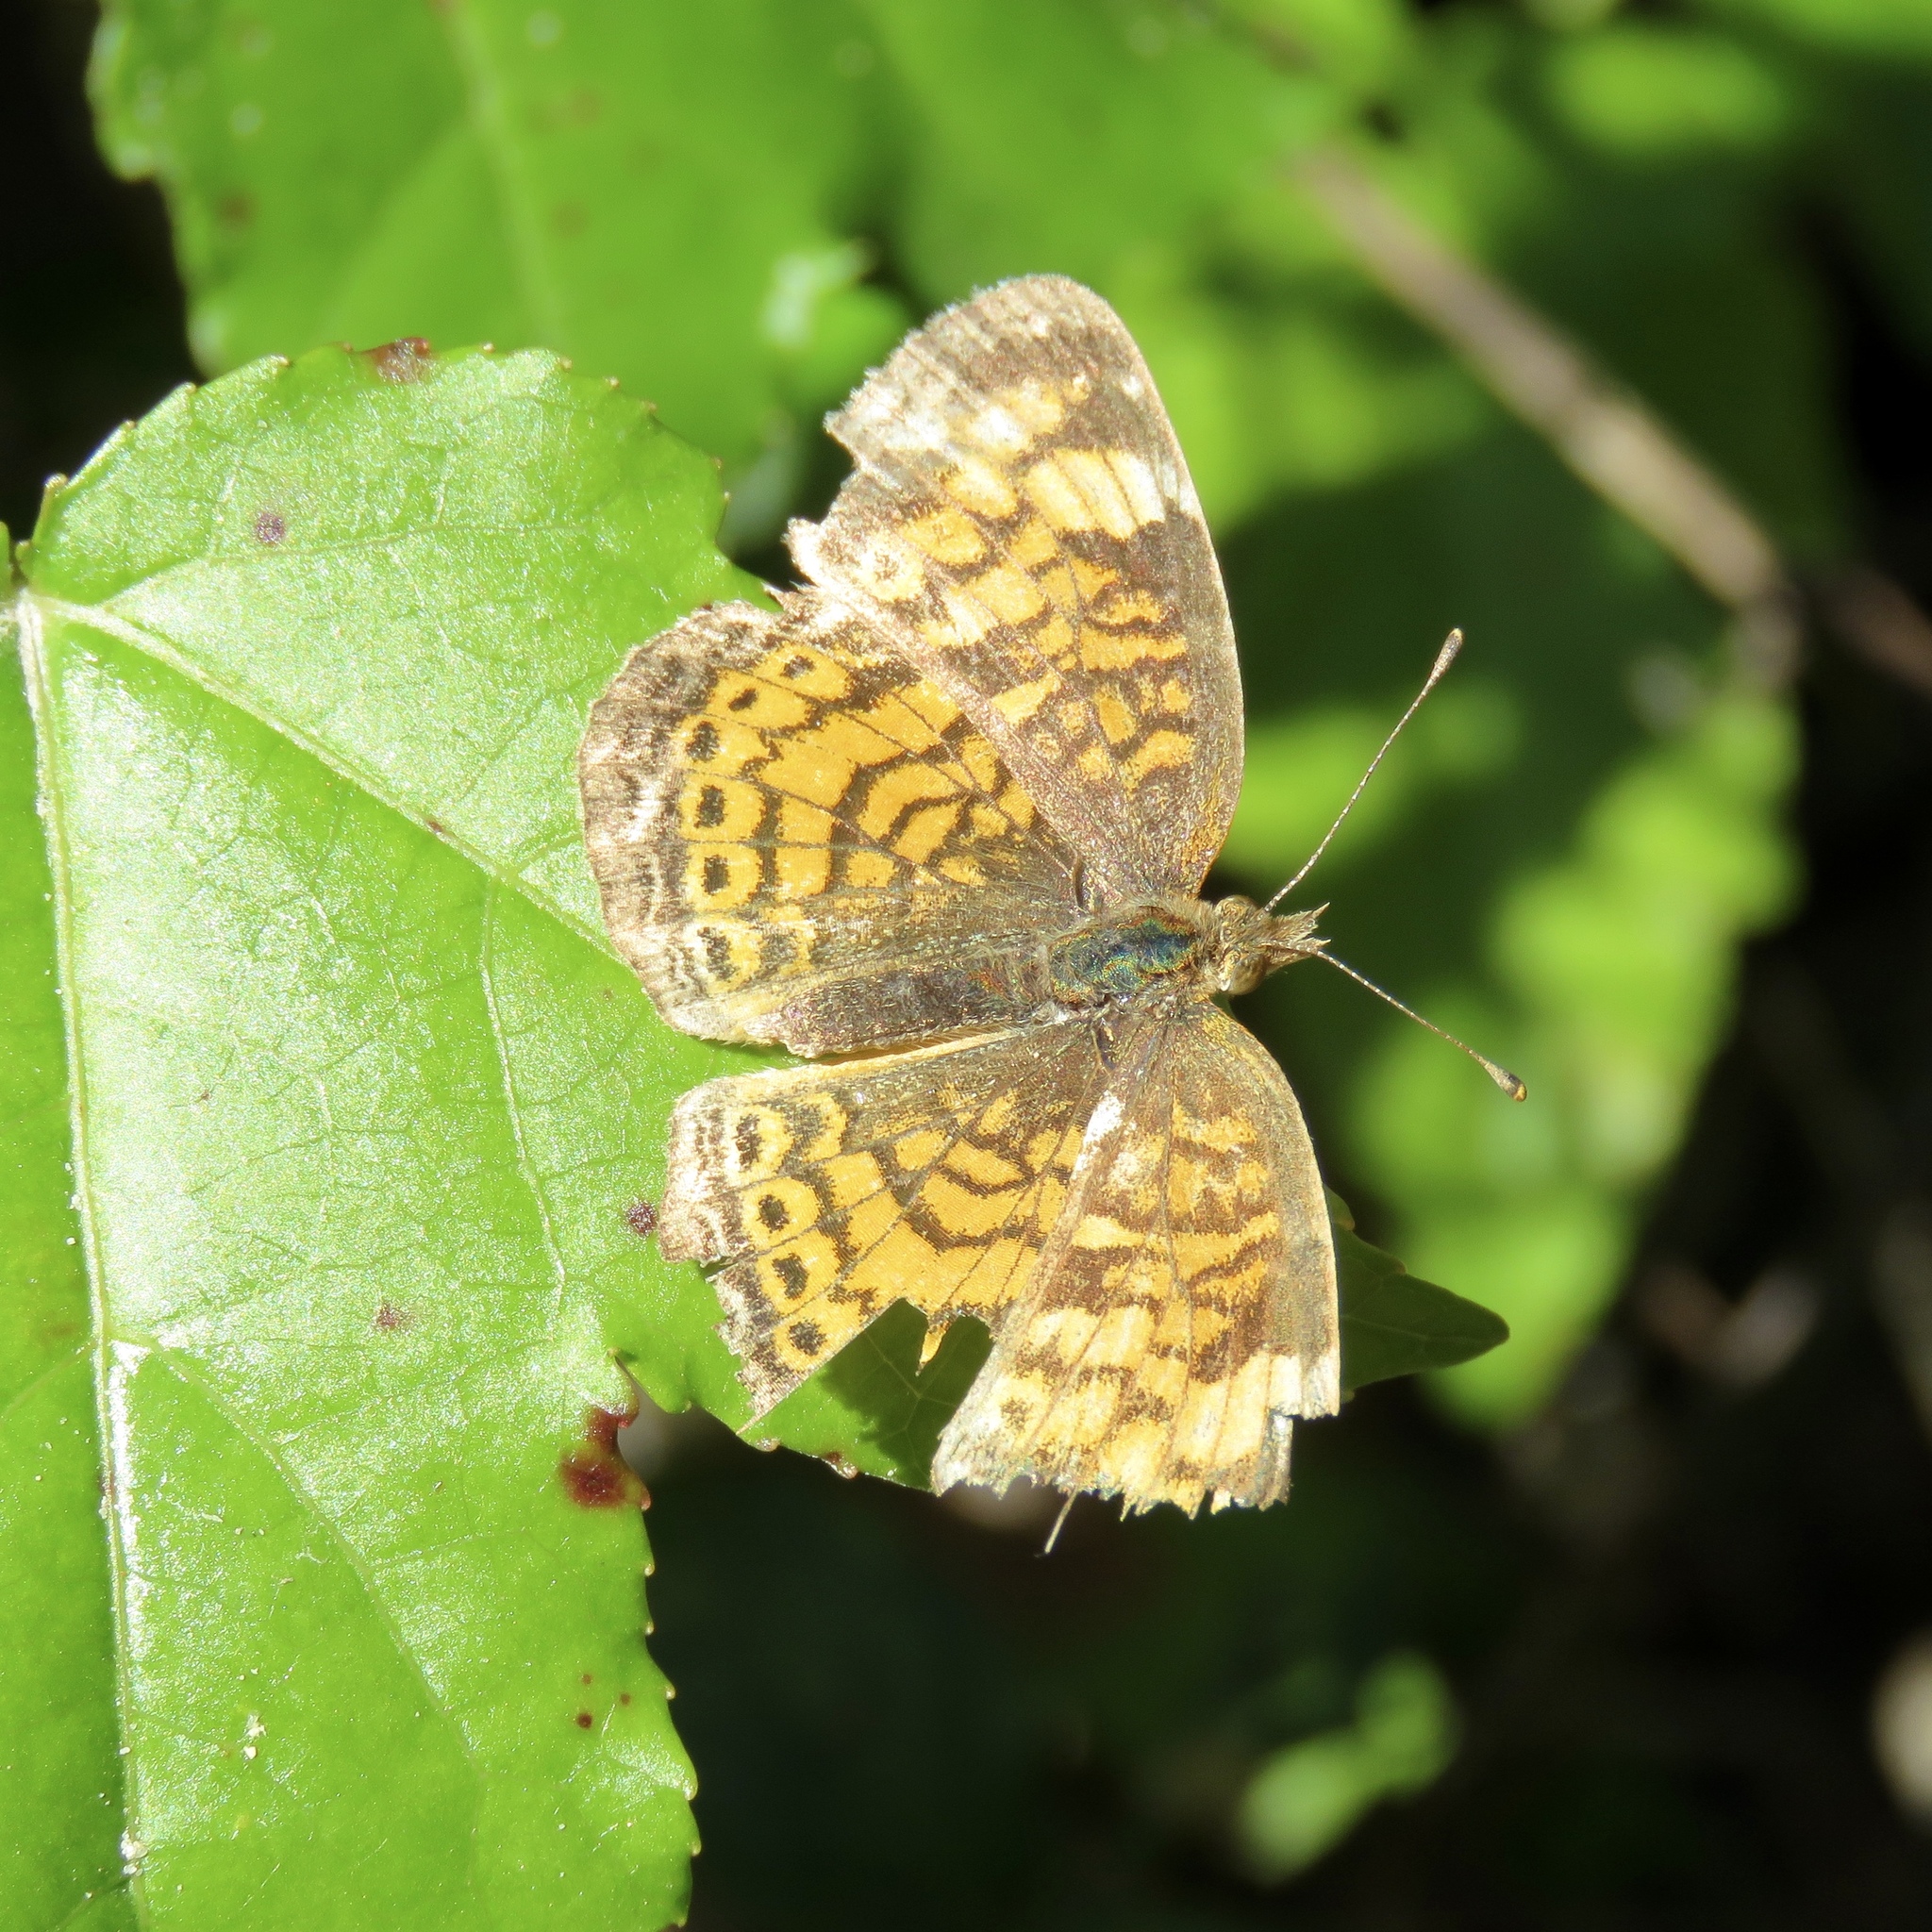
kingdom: Animalia
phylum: Arthropoda
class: Insecta
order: Lepidoptera
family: Nymphalidae
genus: Phyciodes
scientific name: Phyciodes tharos
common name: Pearl crescent
